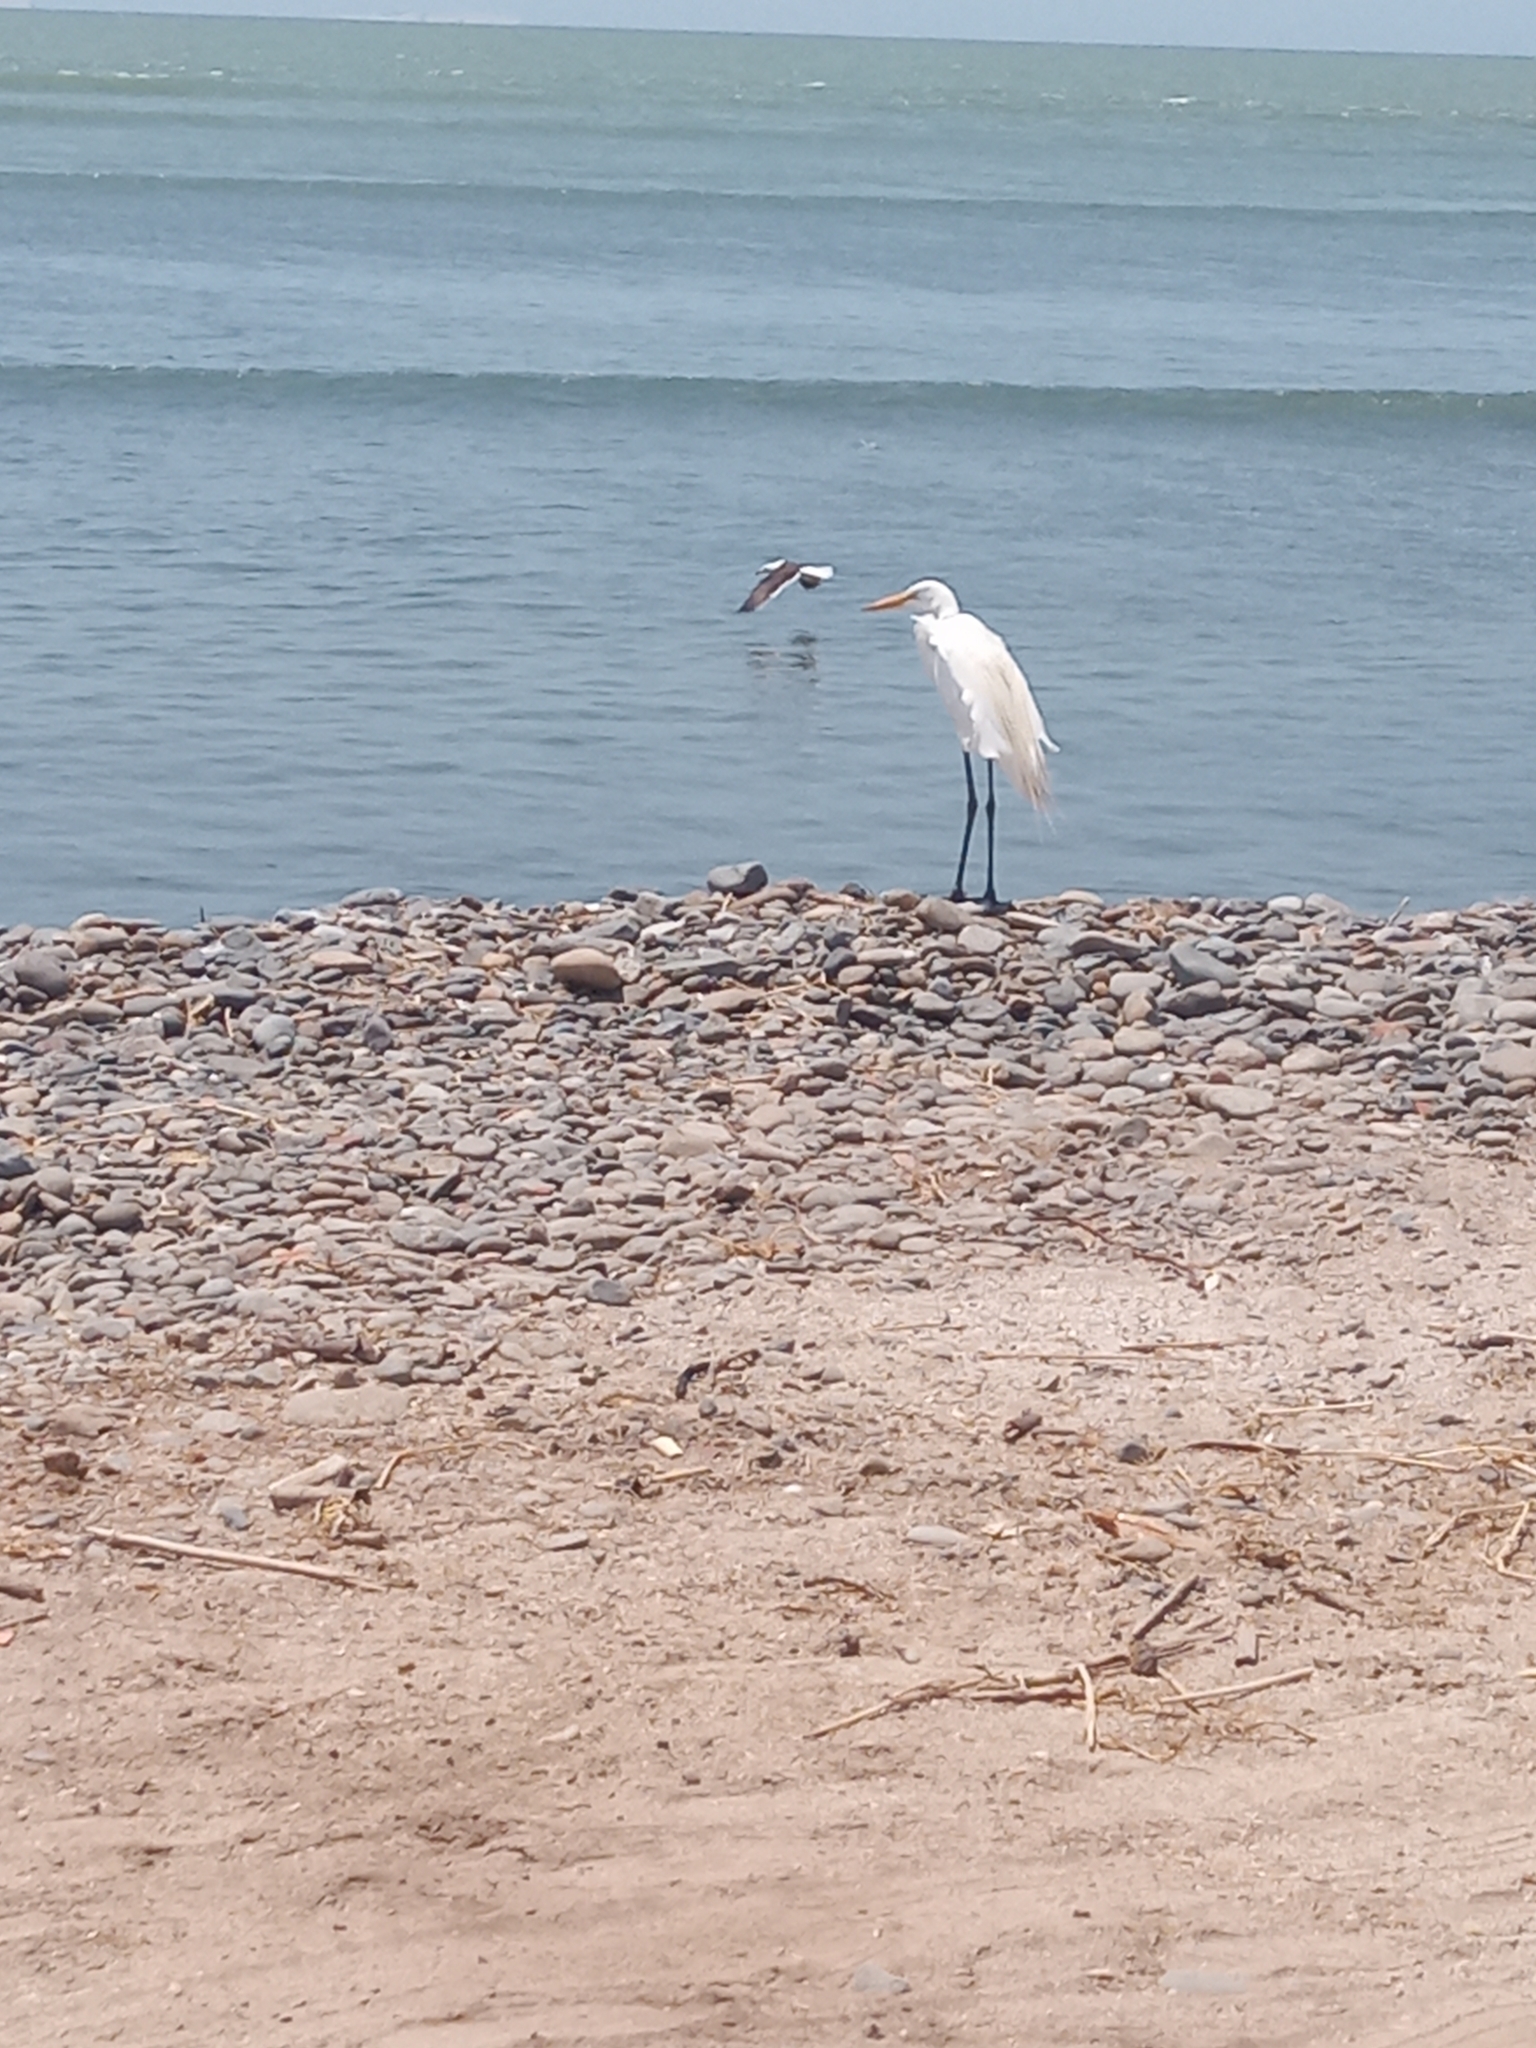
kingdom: Animalia
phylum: Chordata
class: Aves
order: Pelecaniformes
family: Ardeidae
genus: Ardea
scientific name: Ardea alba
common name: Great egret
